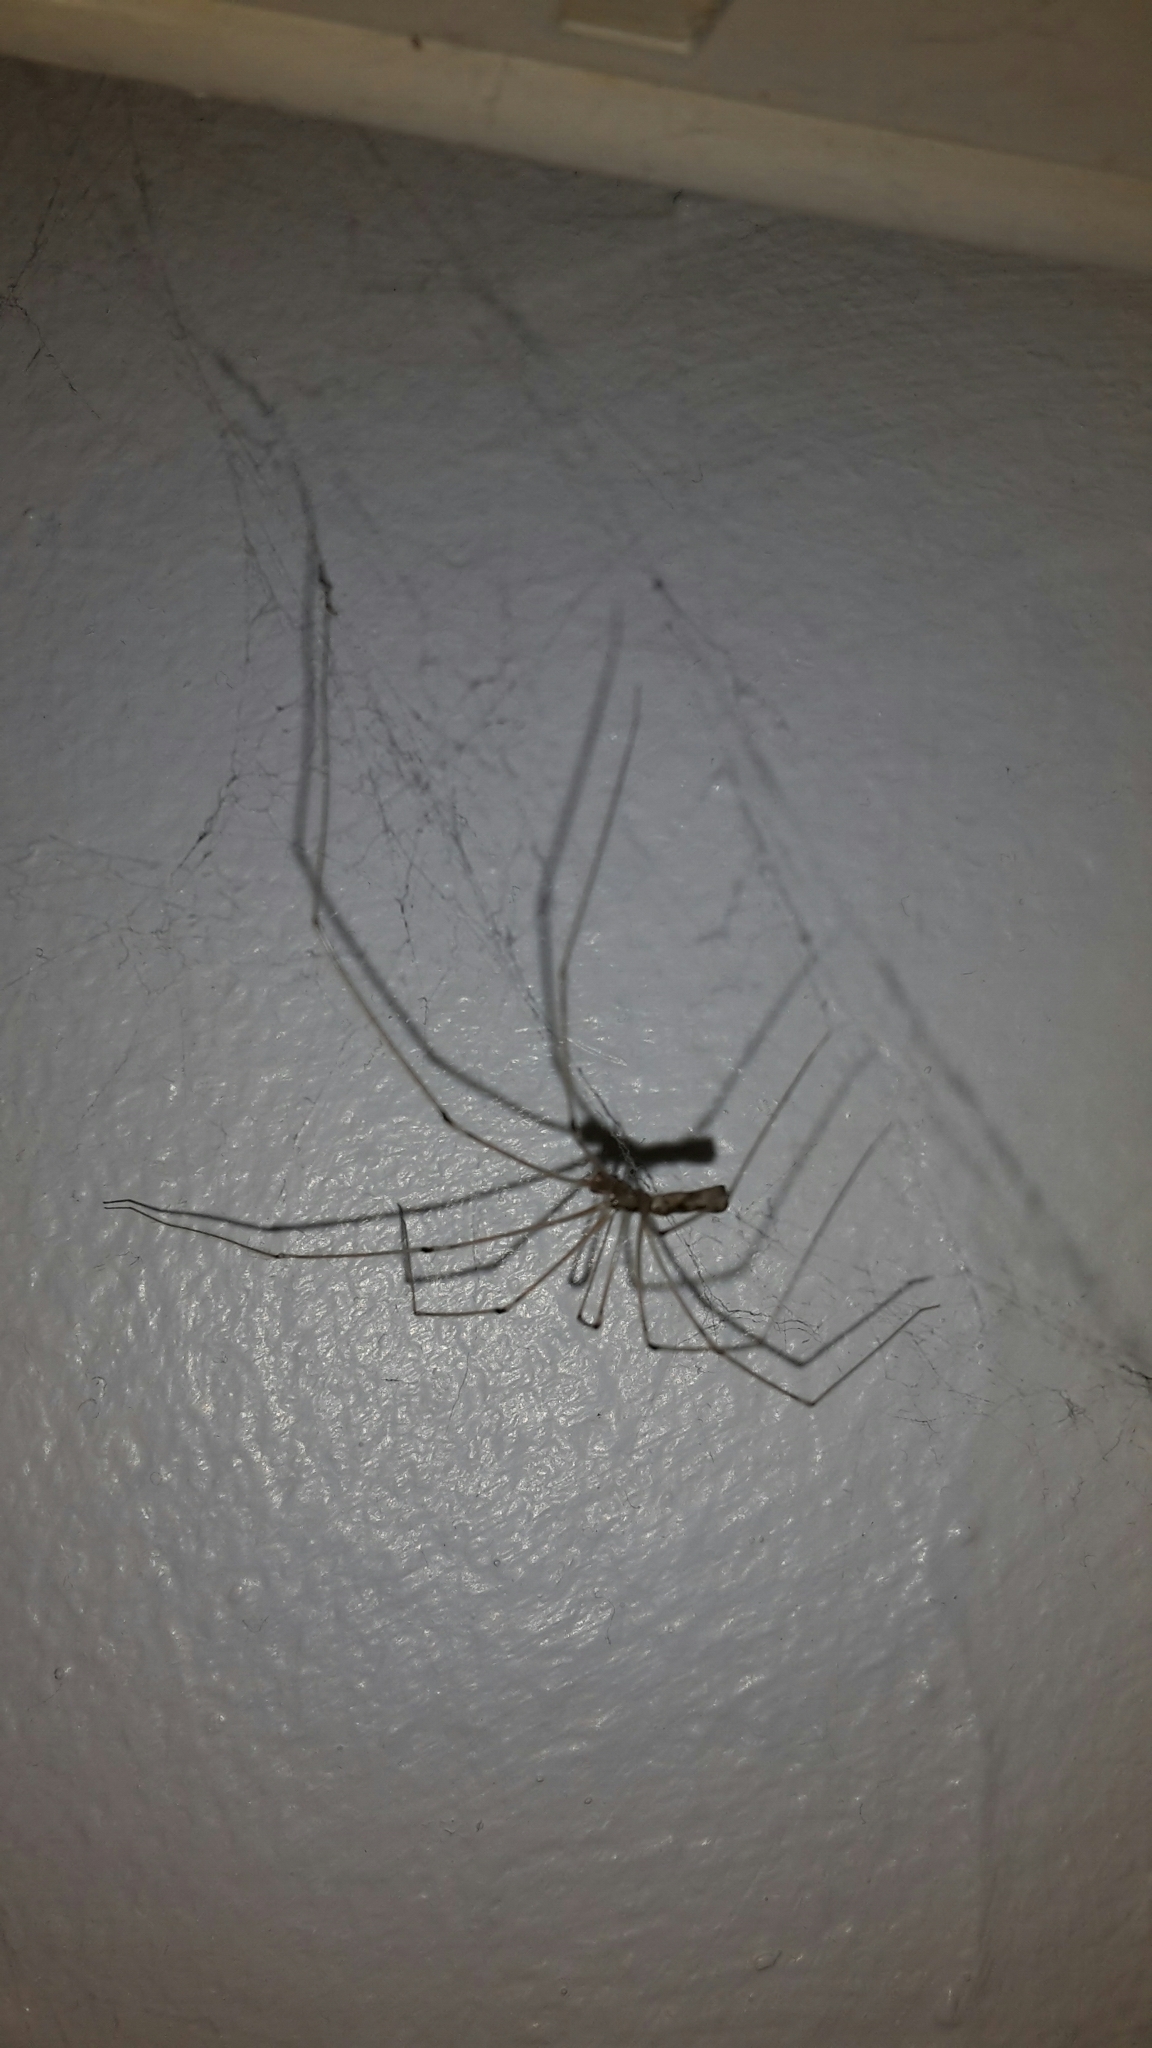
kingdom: Animalia
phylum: Arthropoda
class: Arachnida
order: Araneae
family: Pholcidae
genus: Pholcus
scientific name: Pholcus phalangioides
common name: Longbodied cellar spider
